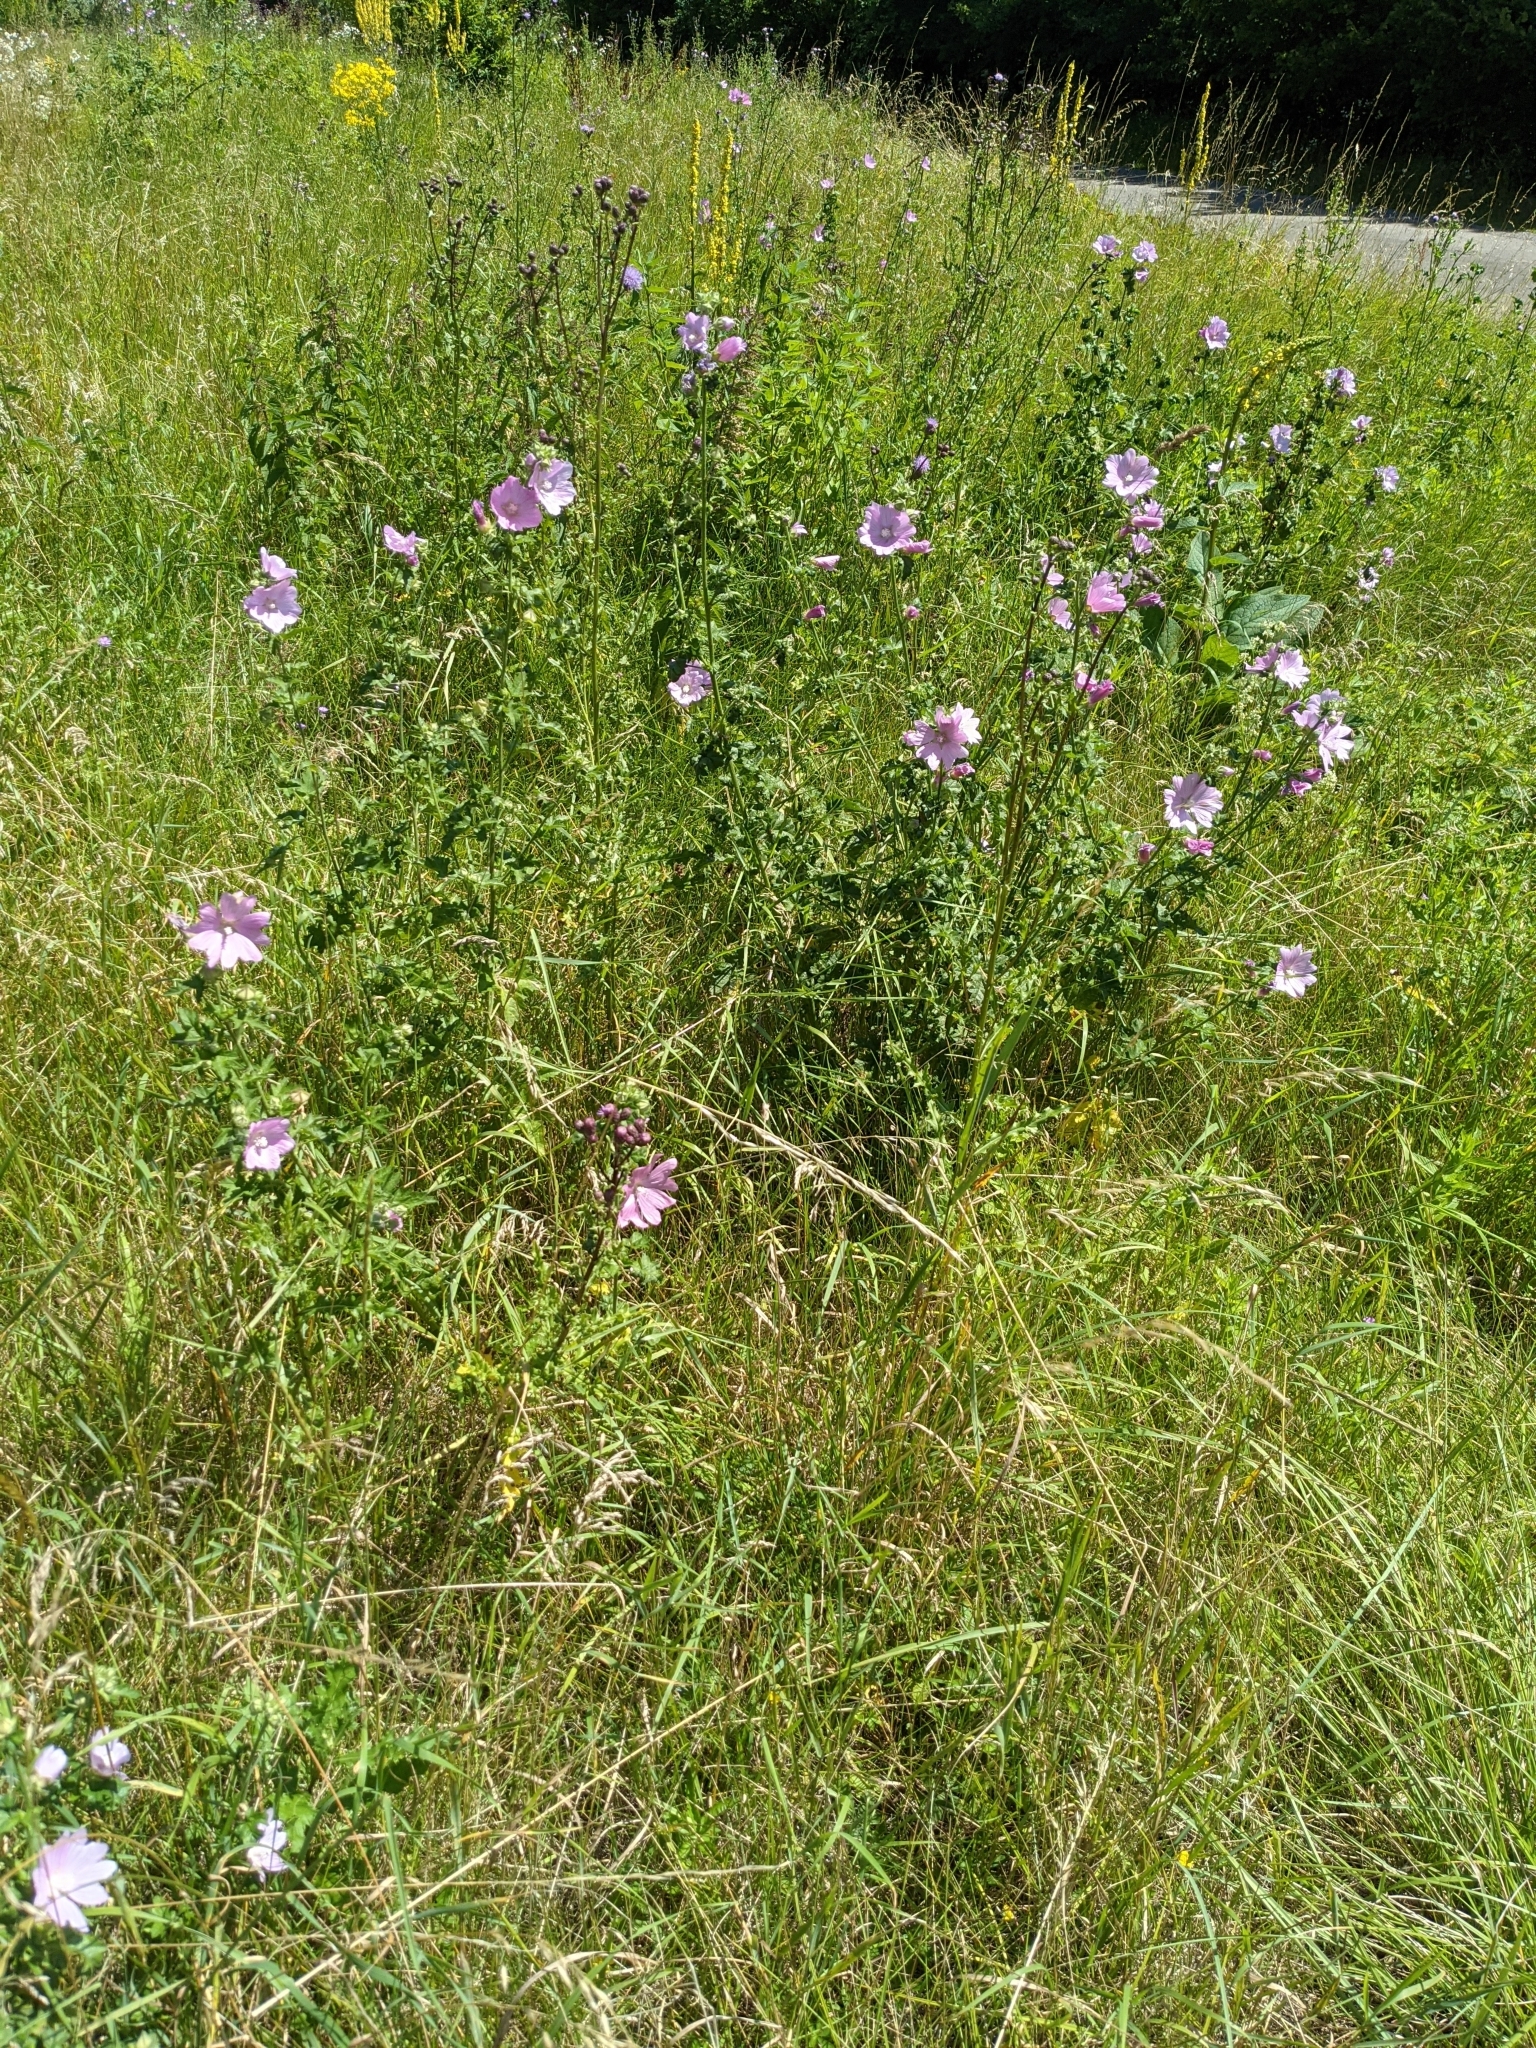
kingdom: Plantae
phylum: Tracheophyta
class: Magnoliopsida
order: Malvales
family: Malvaceae
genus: Malva
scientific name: Malva alcea
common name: Greater musk-mallow
